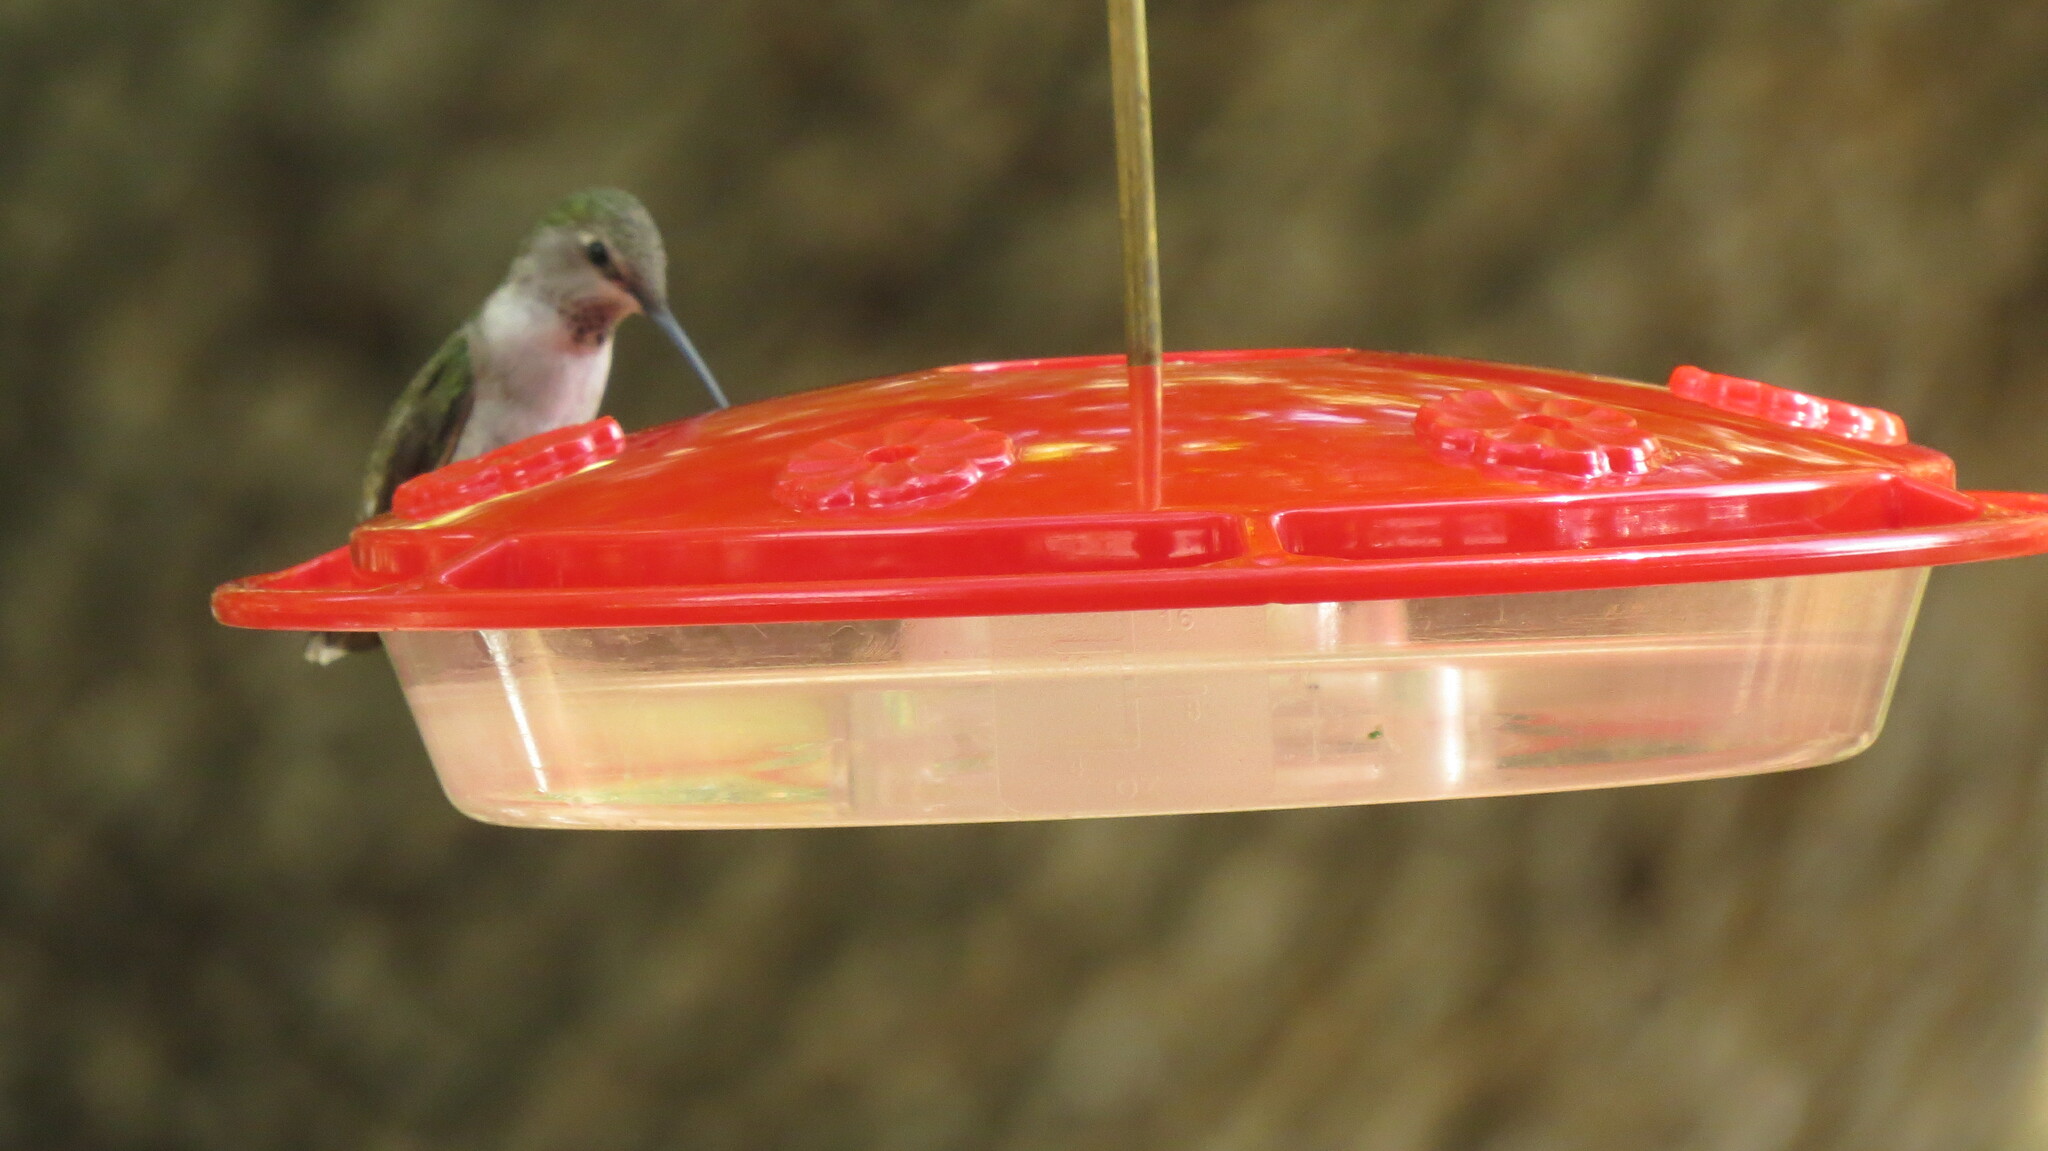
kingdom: Animalia
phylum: Chordata
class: Aves
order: Apodiformes
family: Trochilidae
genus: Archilochus
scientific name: Archilochus alexandri
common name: Black-chinned hummingbird
